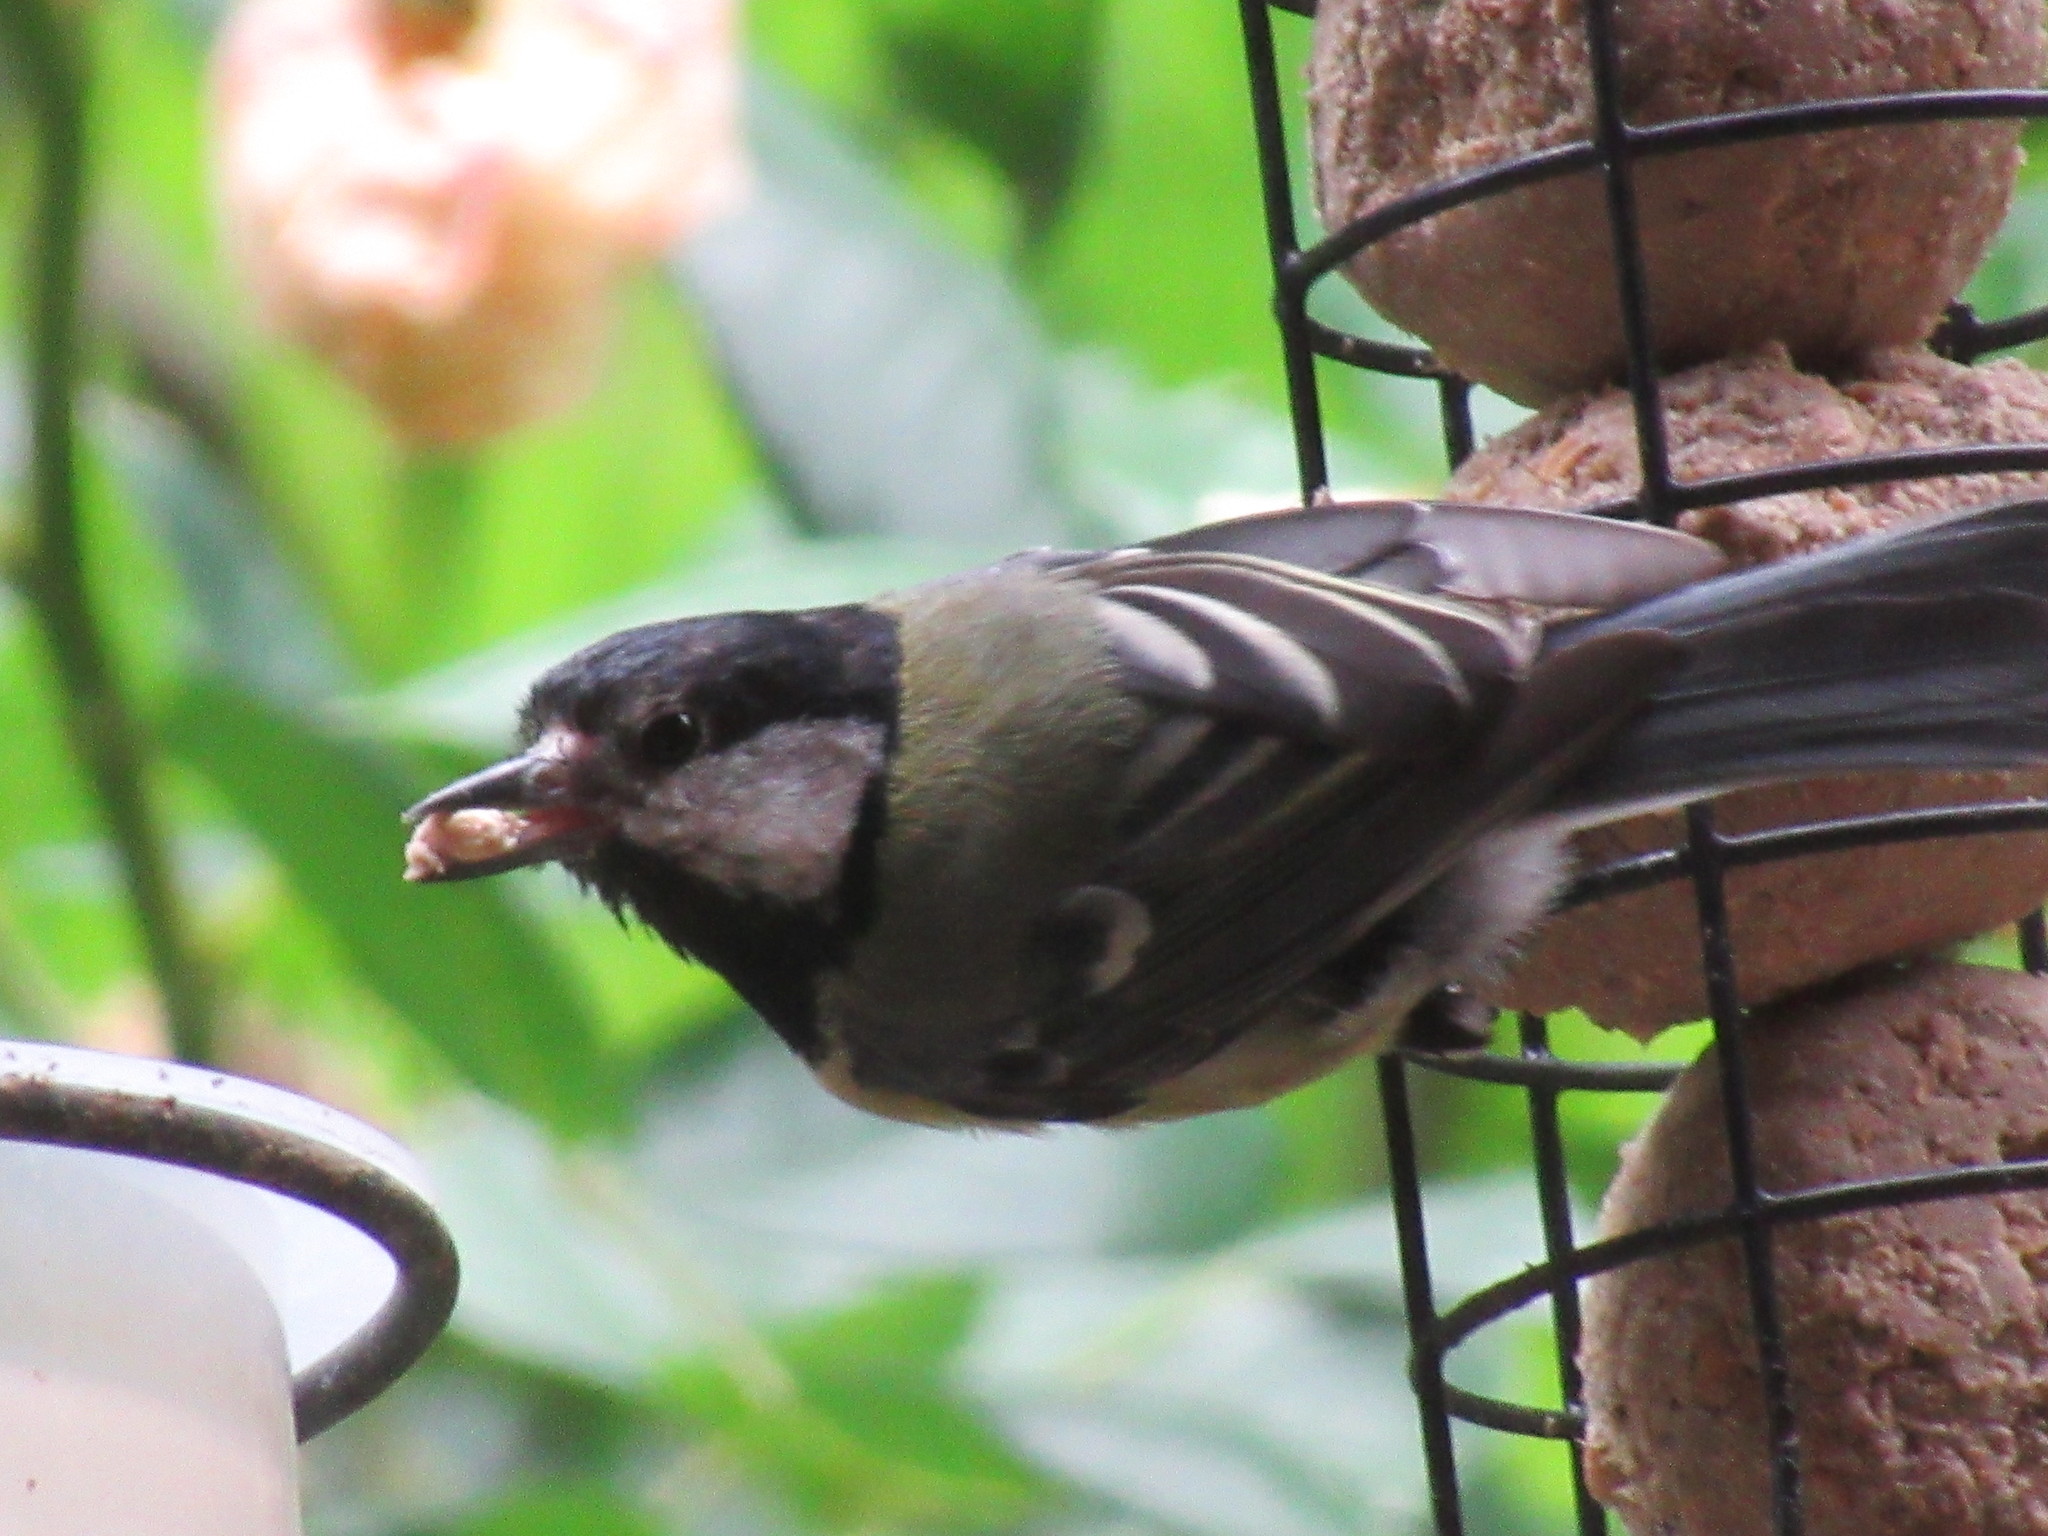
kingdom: Animalia
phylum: Chordata
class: Aves
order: Passeriformes
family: Paridae
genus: Parus
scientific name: Parus major
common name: Great tit
